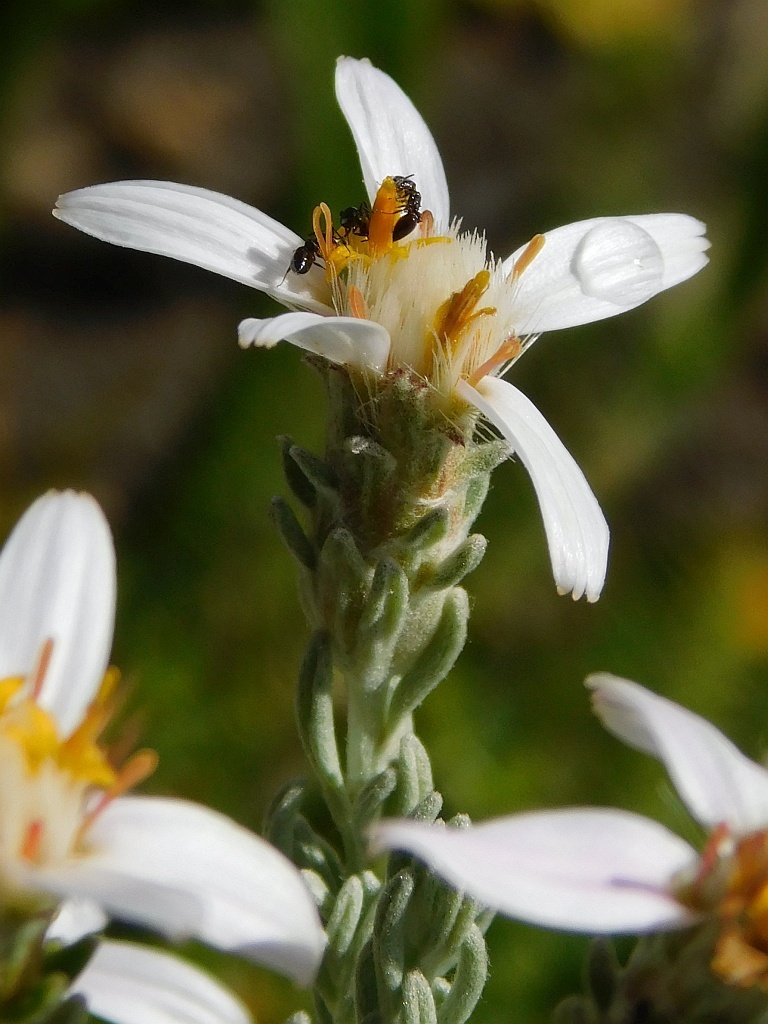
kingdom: Plantae
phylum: Tracheophyta
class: Magnoliopsida
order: Asterales
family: Asteraceae
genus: Printzia
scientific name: Printzia aromatica
